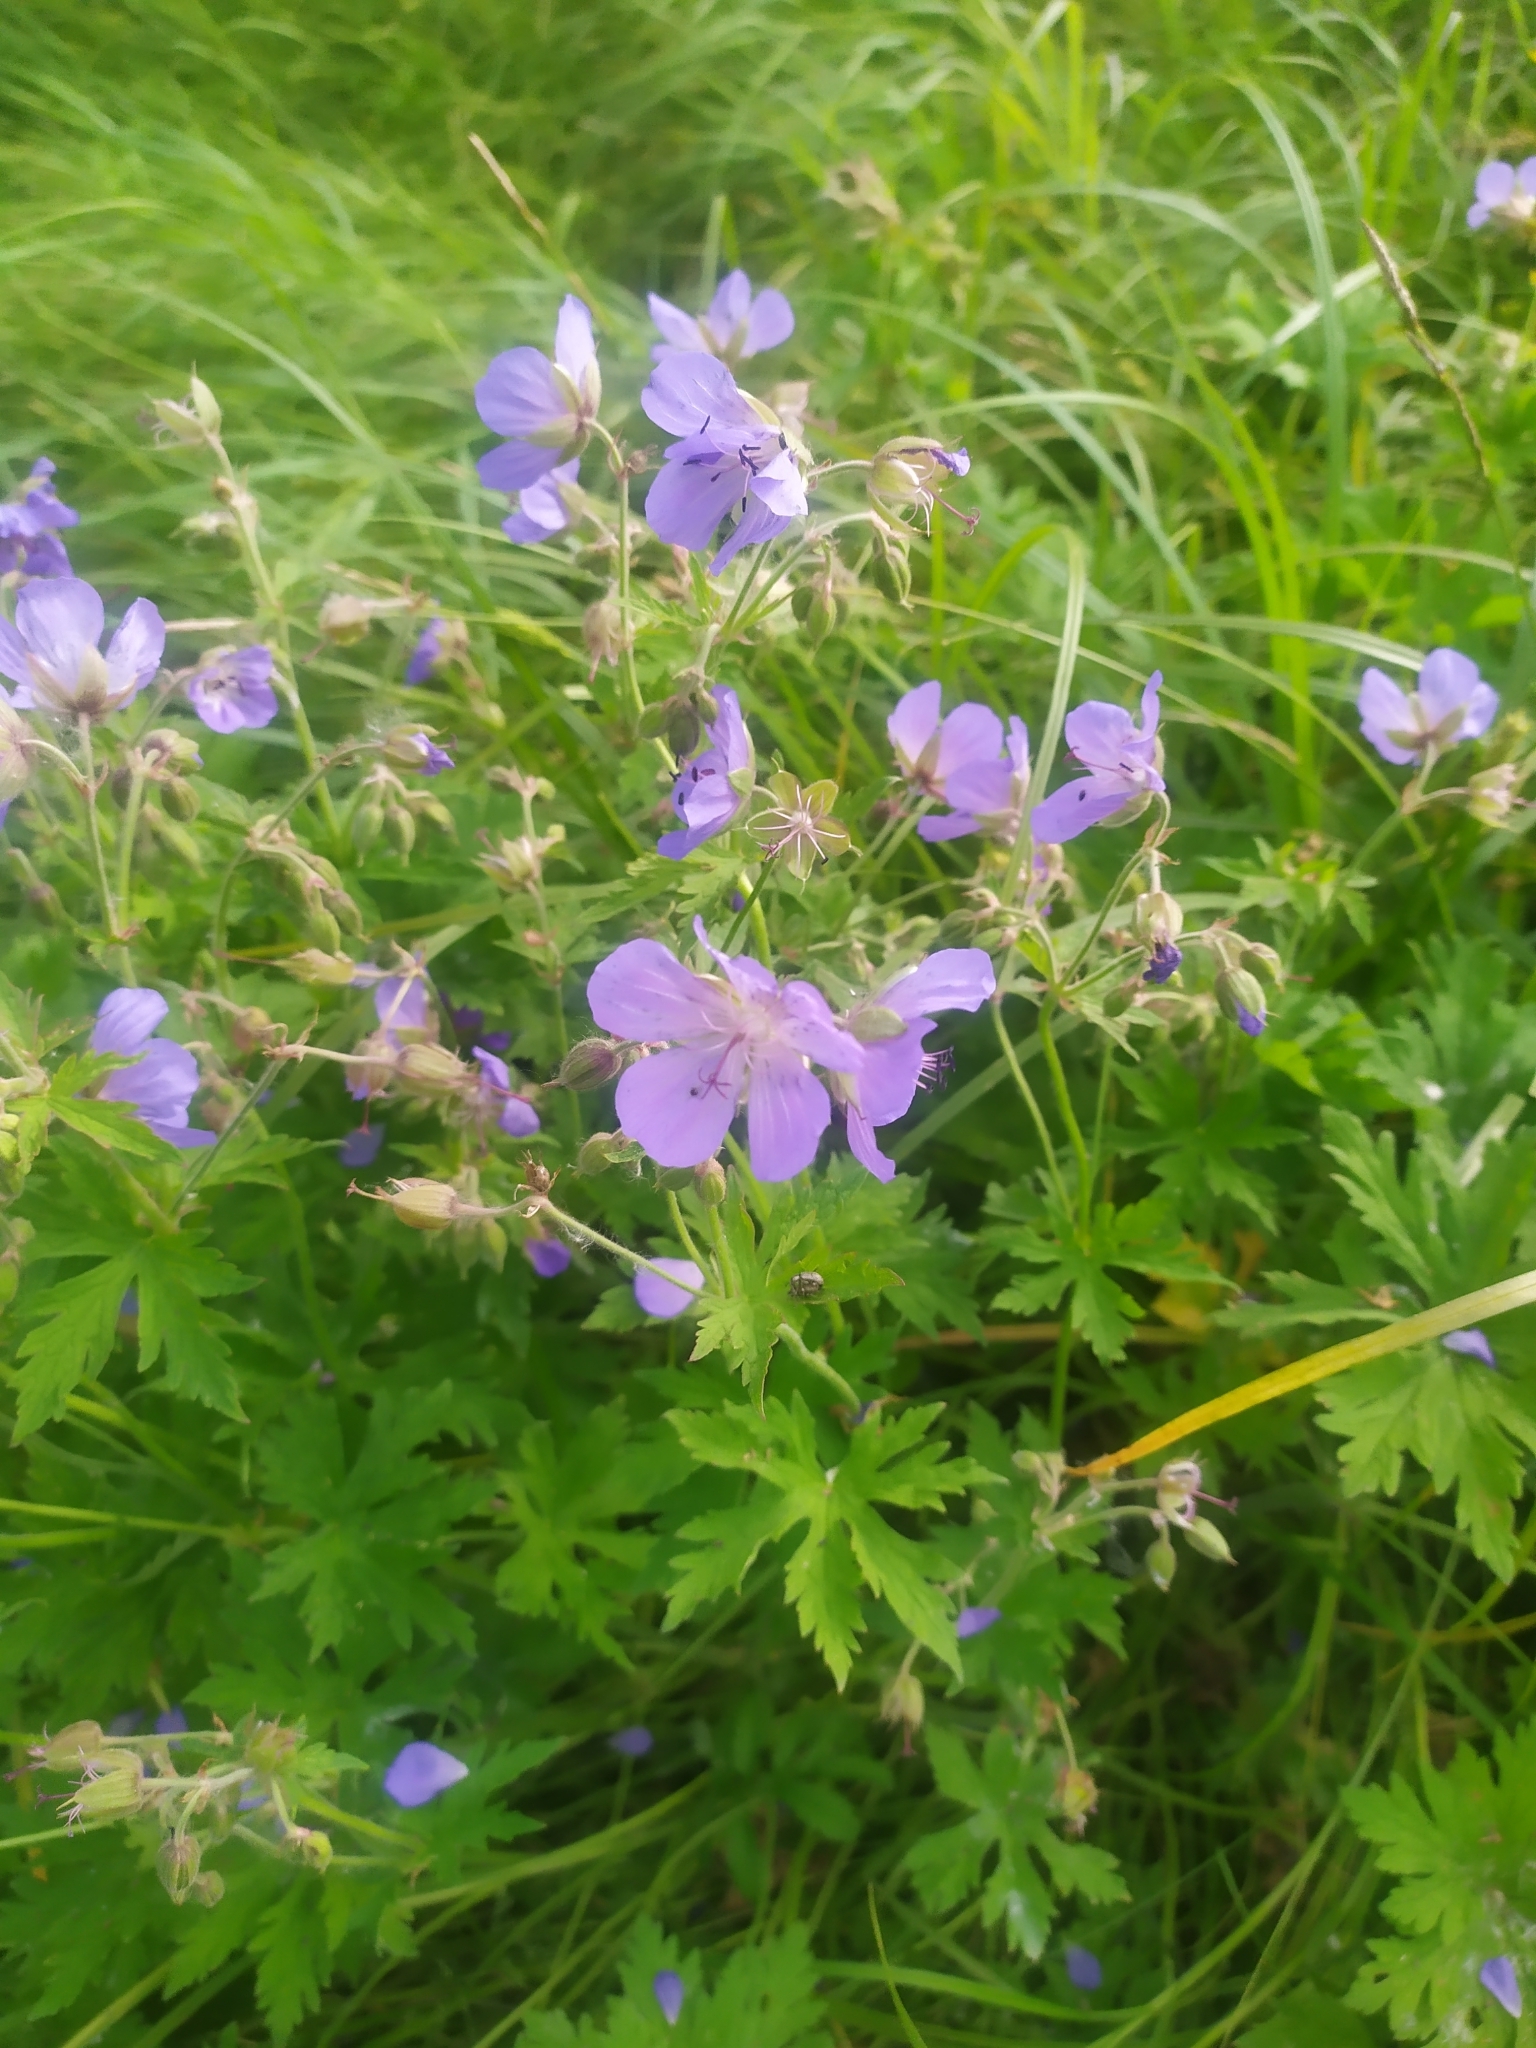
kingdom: Plantae
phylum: Tracheophyta
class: Magnoliopsida
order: Geraniales
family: Geraniaceae
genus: Geranium
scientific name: Geranium pratense
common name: Meadow crane's-bill
